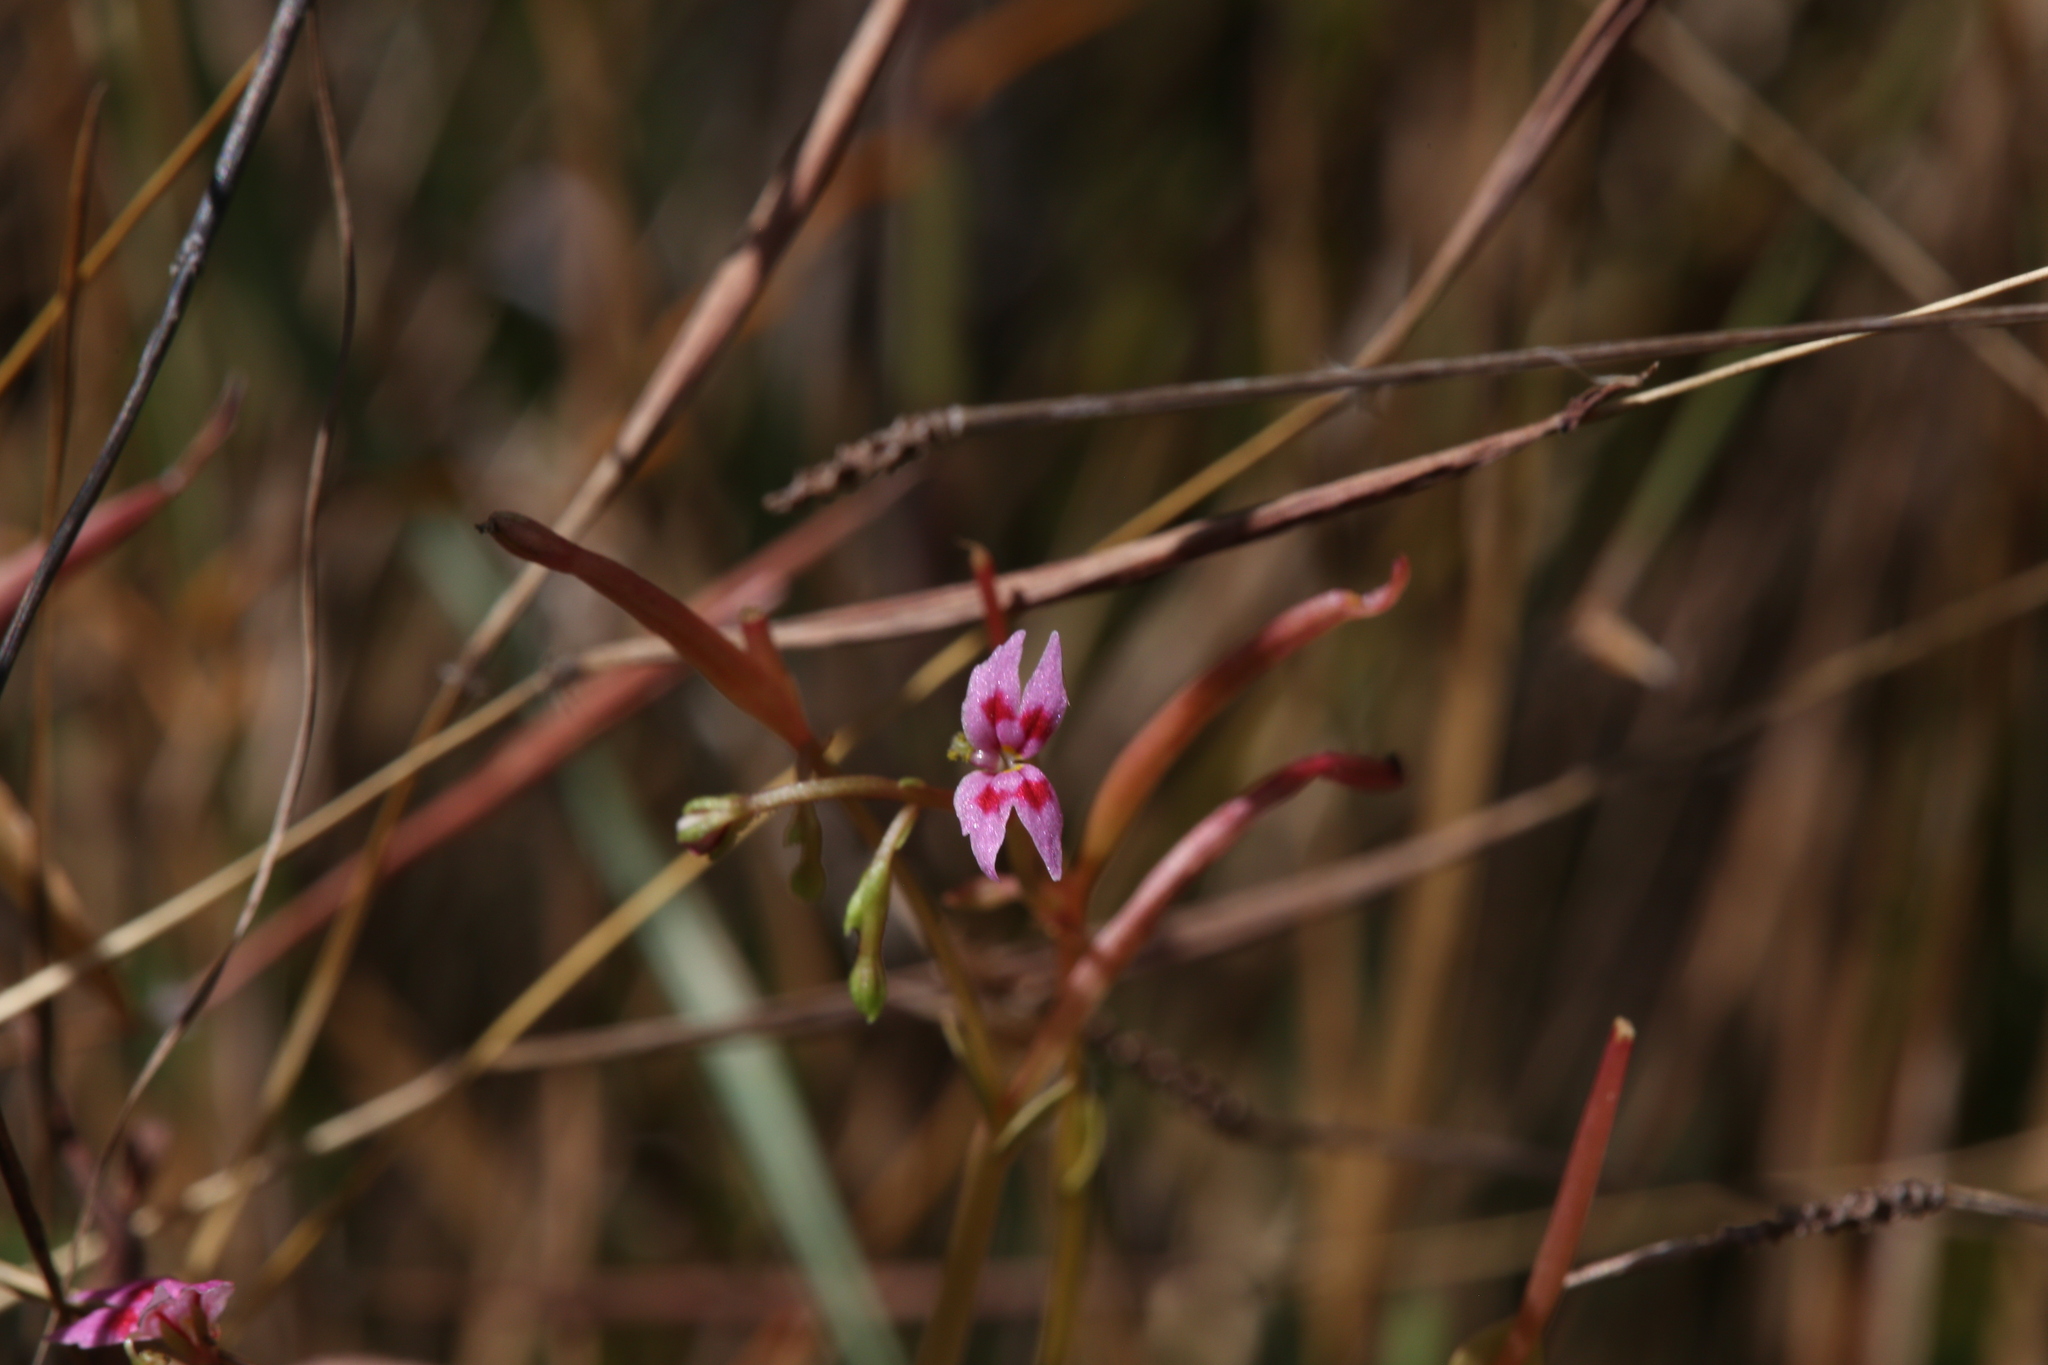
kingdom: Plantae
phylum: Tracheophyta
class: Magnoliopsida
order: Asterales
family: Stylidiaceae
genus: Stylidium
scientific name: Stylidium cordifolium
